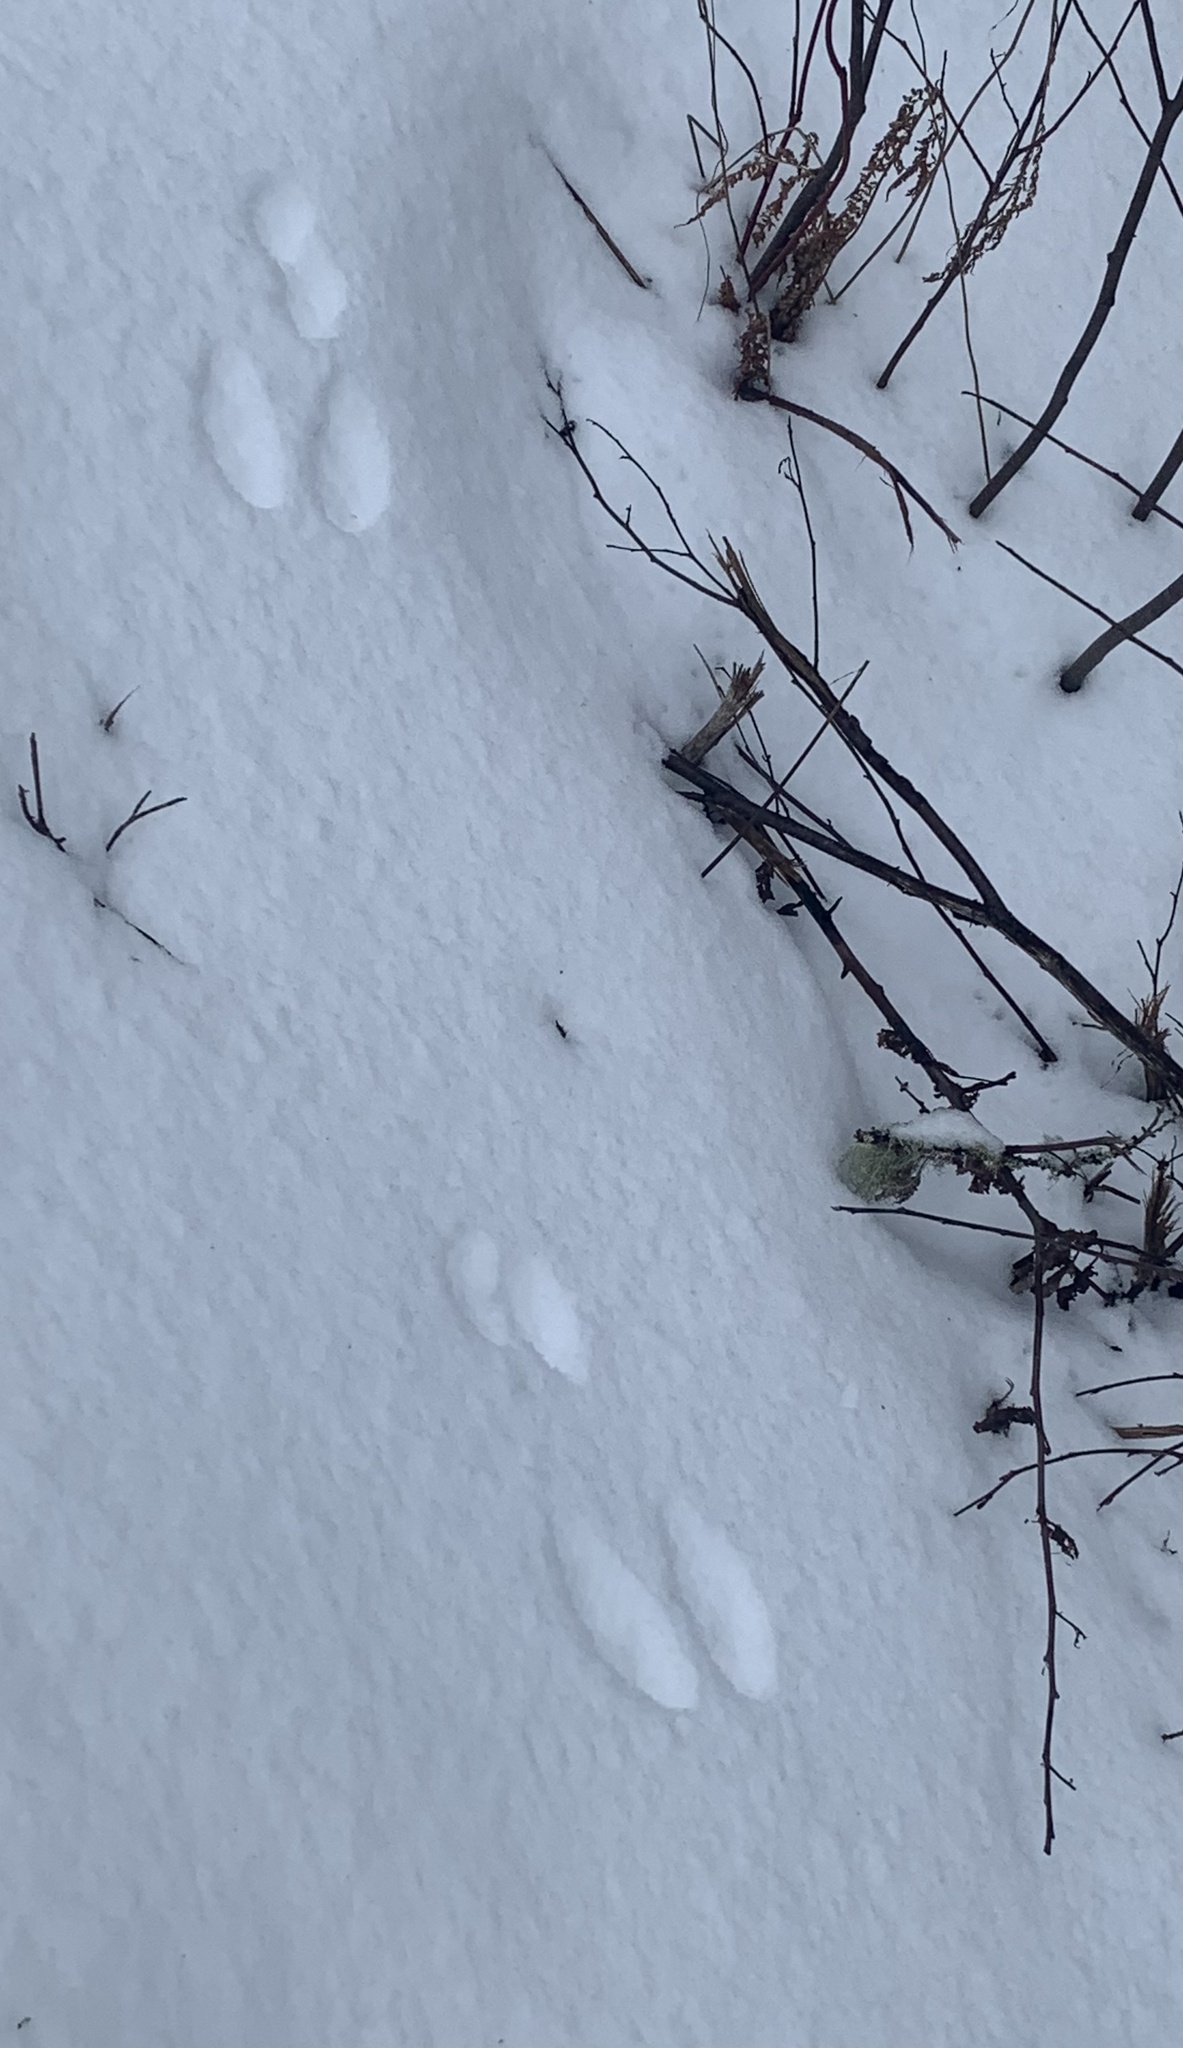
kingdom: Animalia
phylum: Chordata
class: Mammalia
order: Lagomorpha
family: Leporidae
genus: Lepus
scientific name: Lepus americanus
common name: Snowshoe hare
